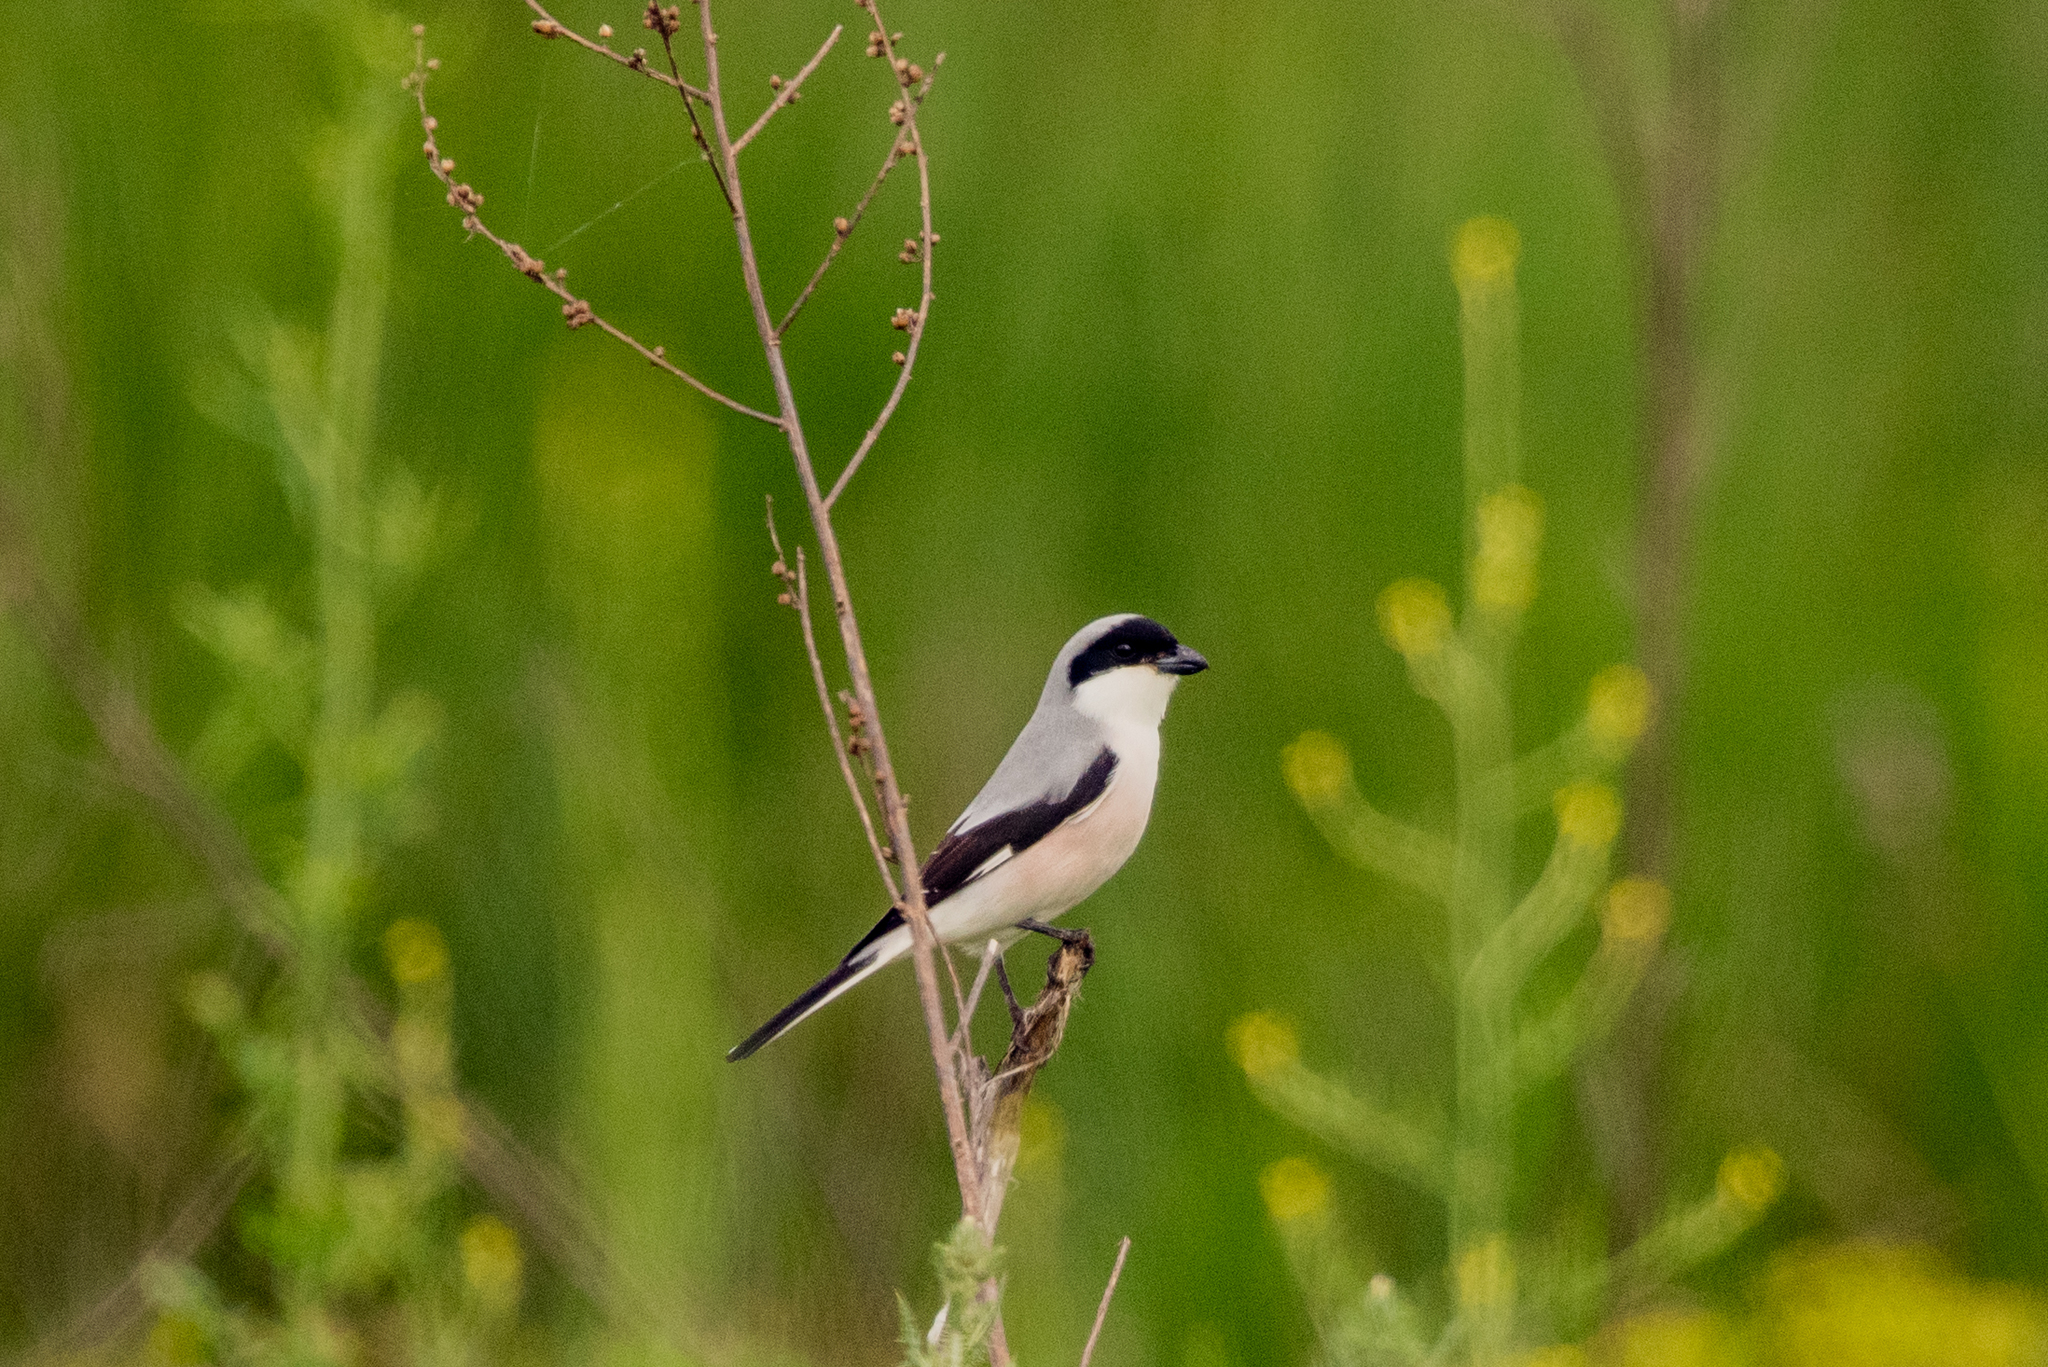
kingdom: Animalia
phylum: Chordata
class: Aves
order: Passeriformes
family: Laniidae
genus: Lanius
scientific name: Lanius minor
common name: Lesser grey shrike
